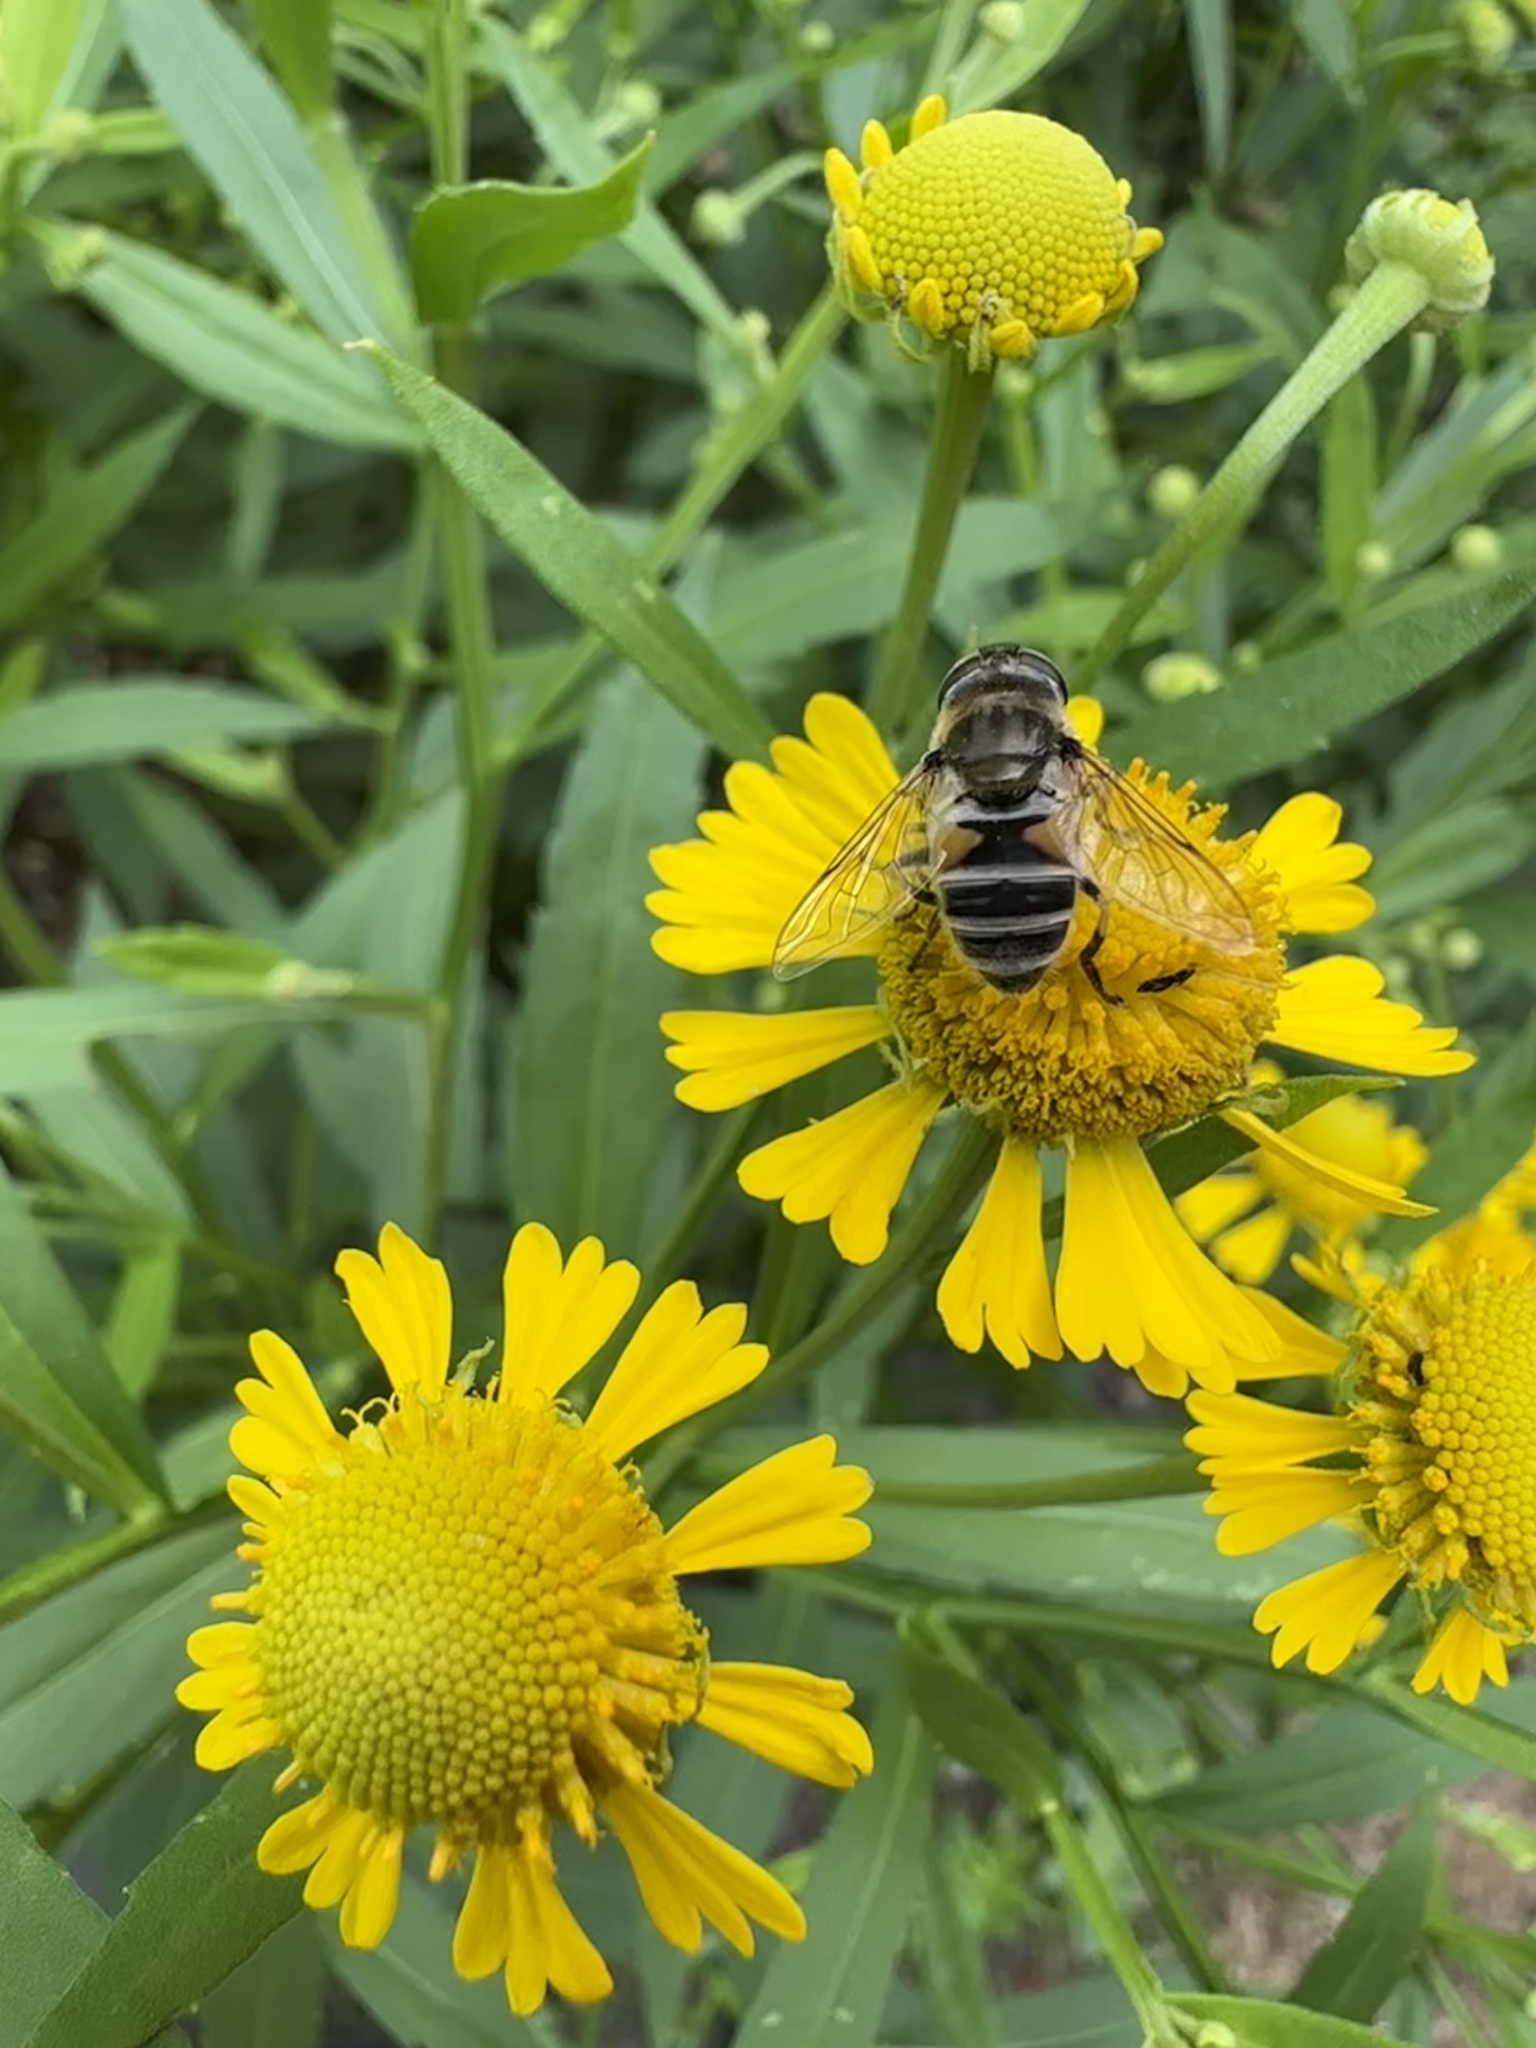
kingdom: Animalia
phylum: Arthropoda
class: Insecta
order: Diptera
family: Syrphidae
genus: Eristalis
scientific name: Eristalis arbustorum
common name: Hover fly
